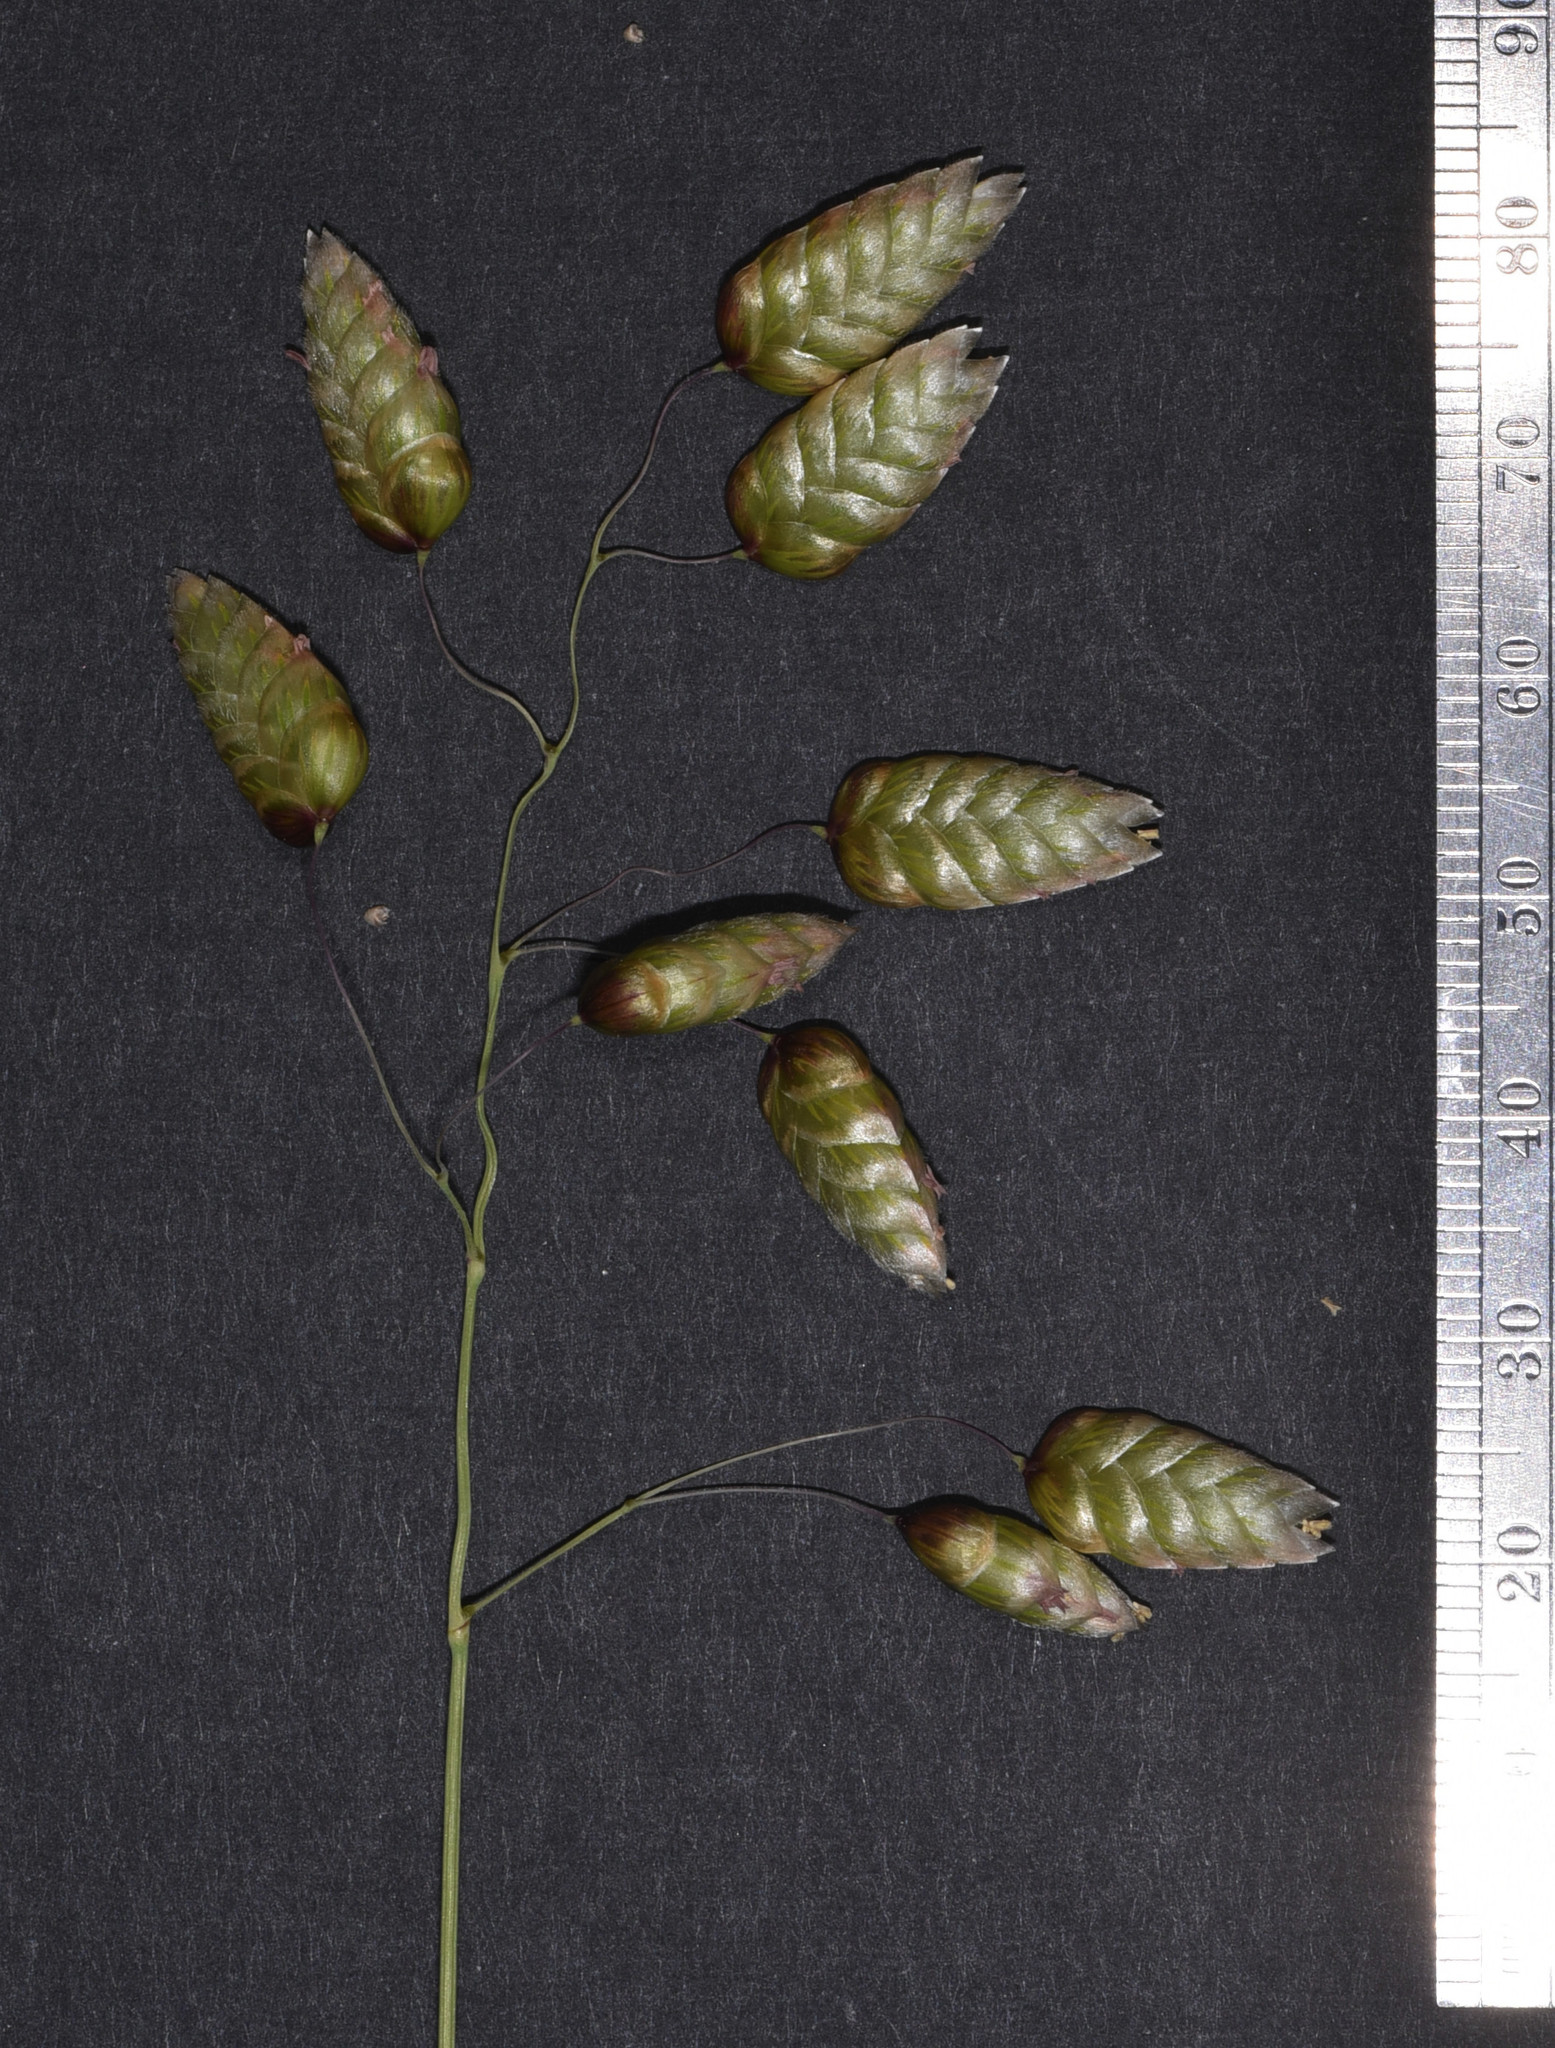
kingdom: Plantae
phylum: Tracheophyta
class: Liliopsida
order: Poales
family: Poaceae
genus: Briza
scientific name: Briza maxima
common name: Big quakinggrass
